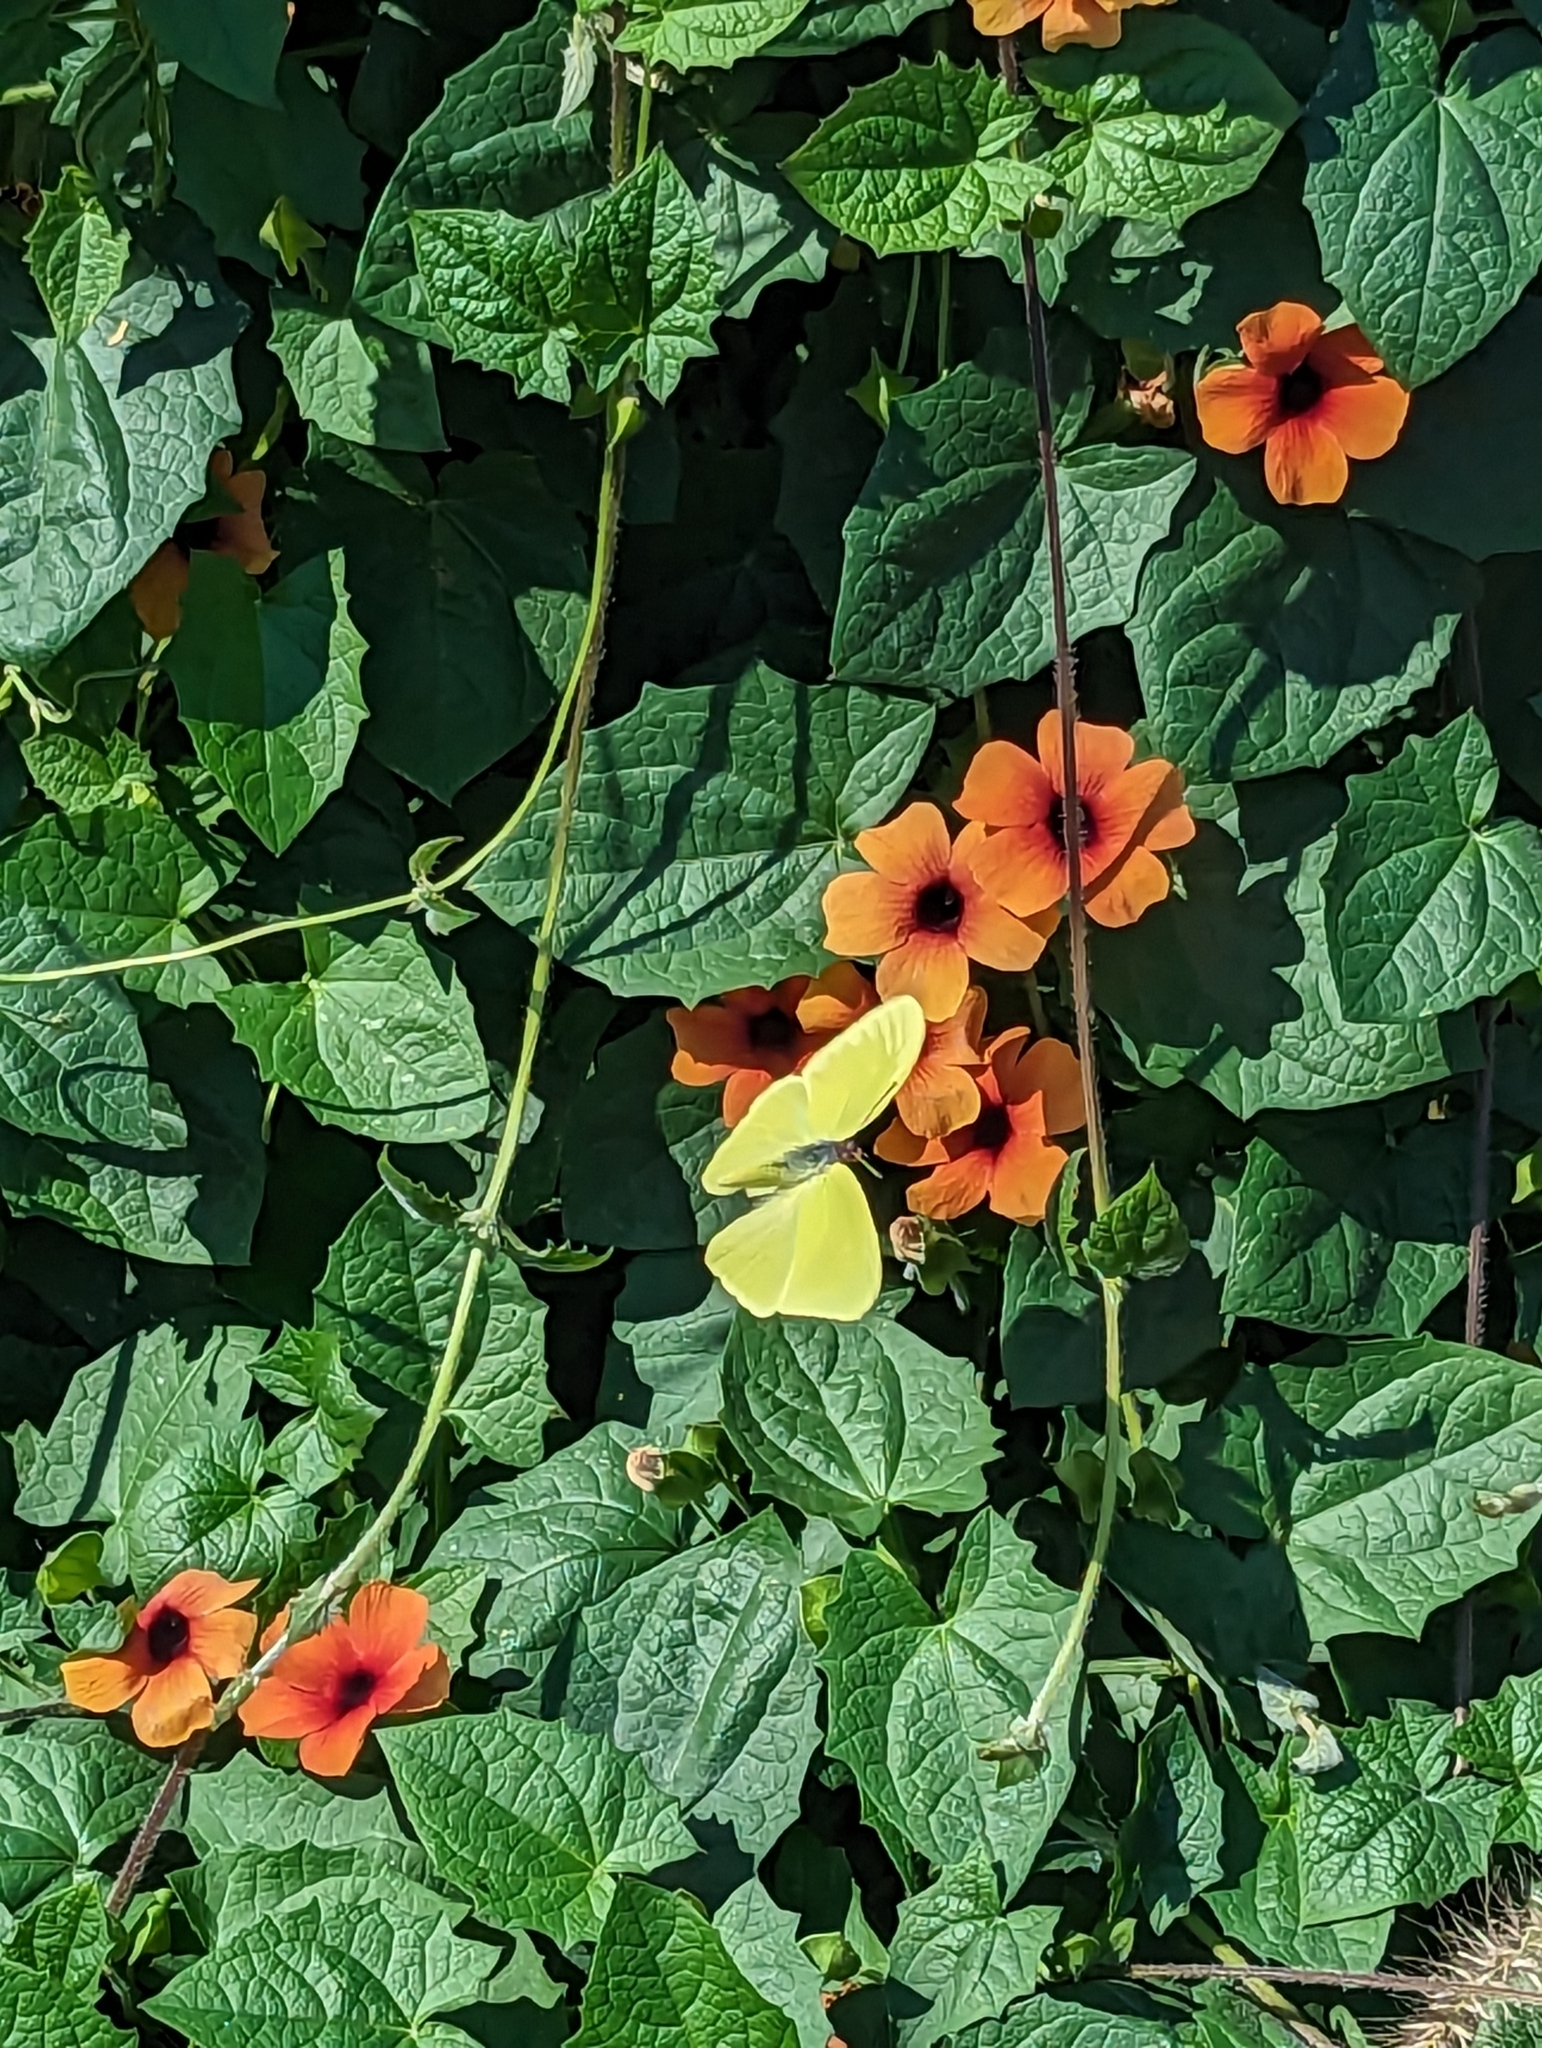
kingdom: Animalia
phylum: Arthropoda
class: Insecta
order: Lepidoptera
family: Pieridae
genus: Phoebis
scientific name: Phoebis sennae
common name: Cloudless sulphur
